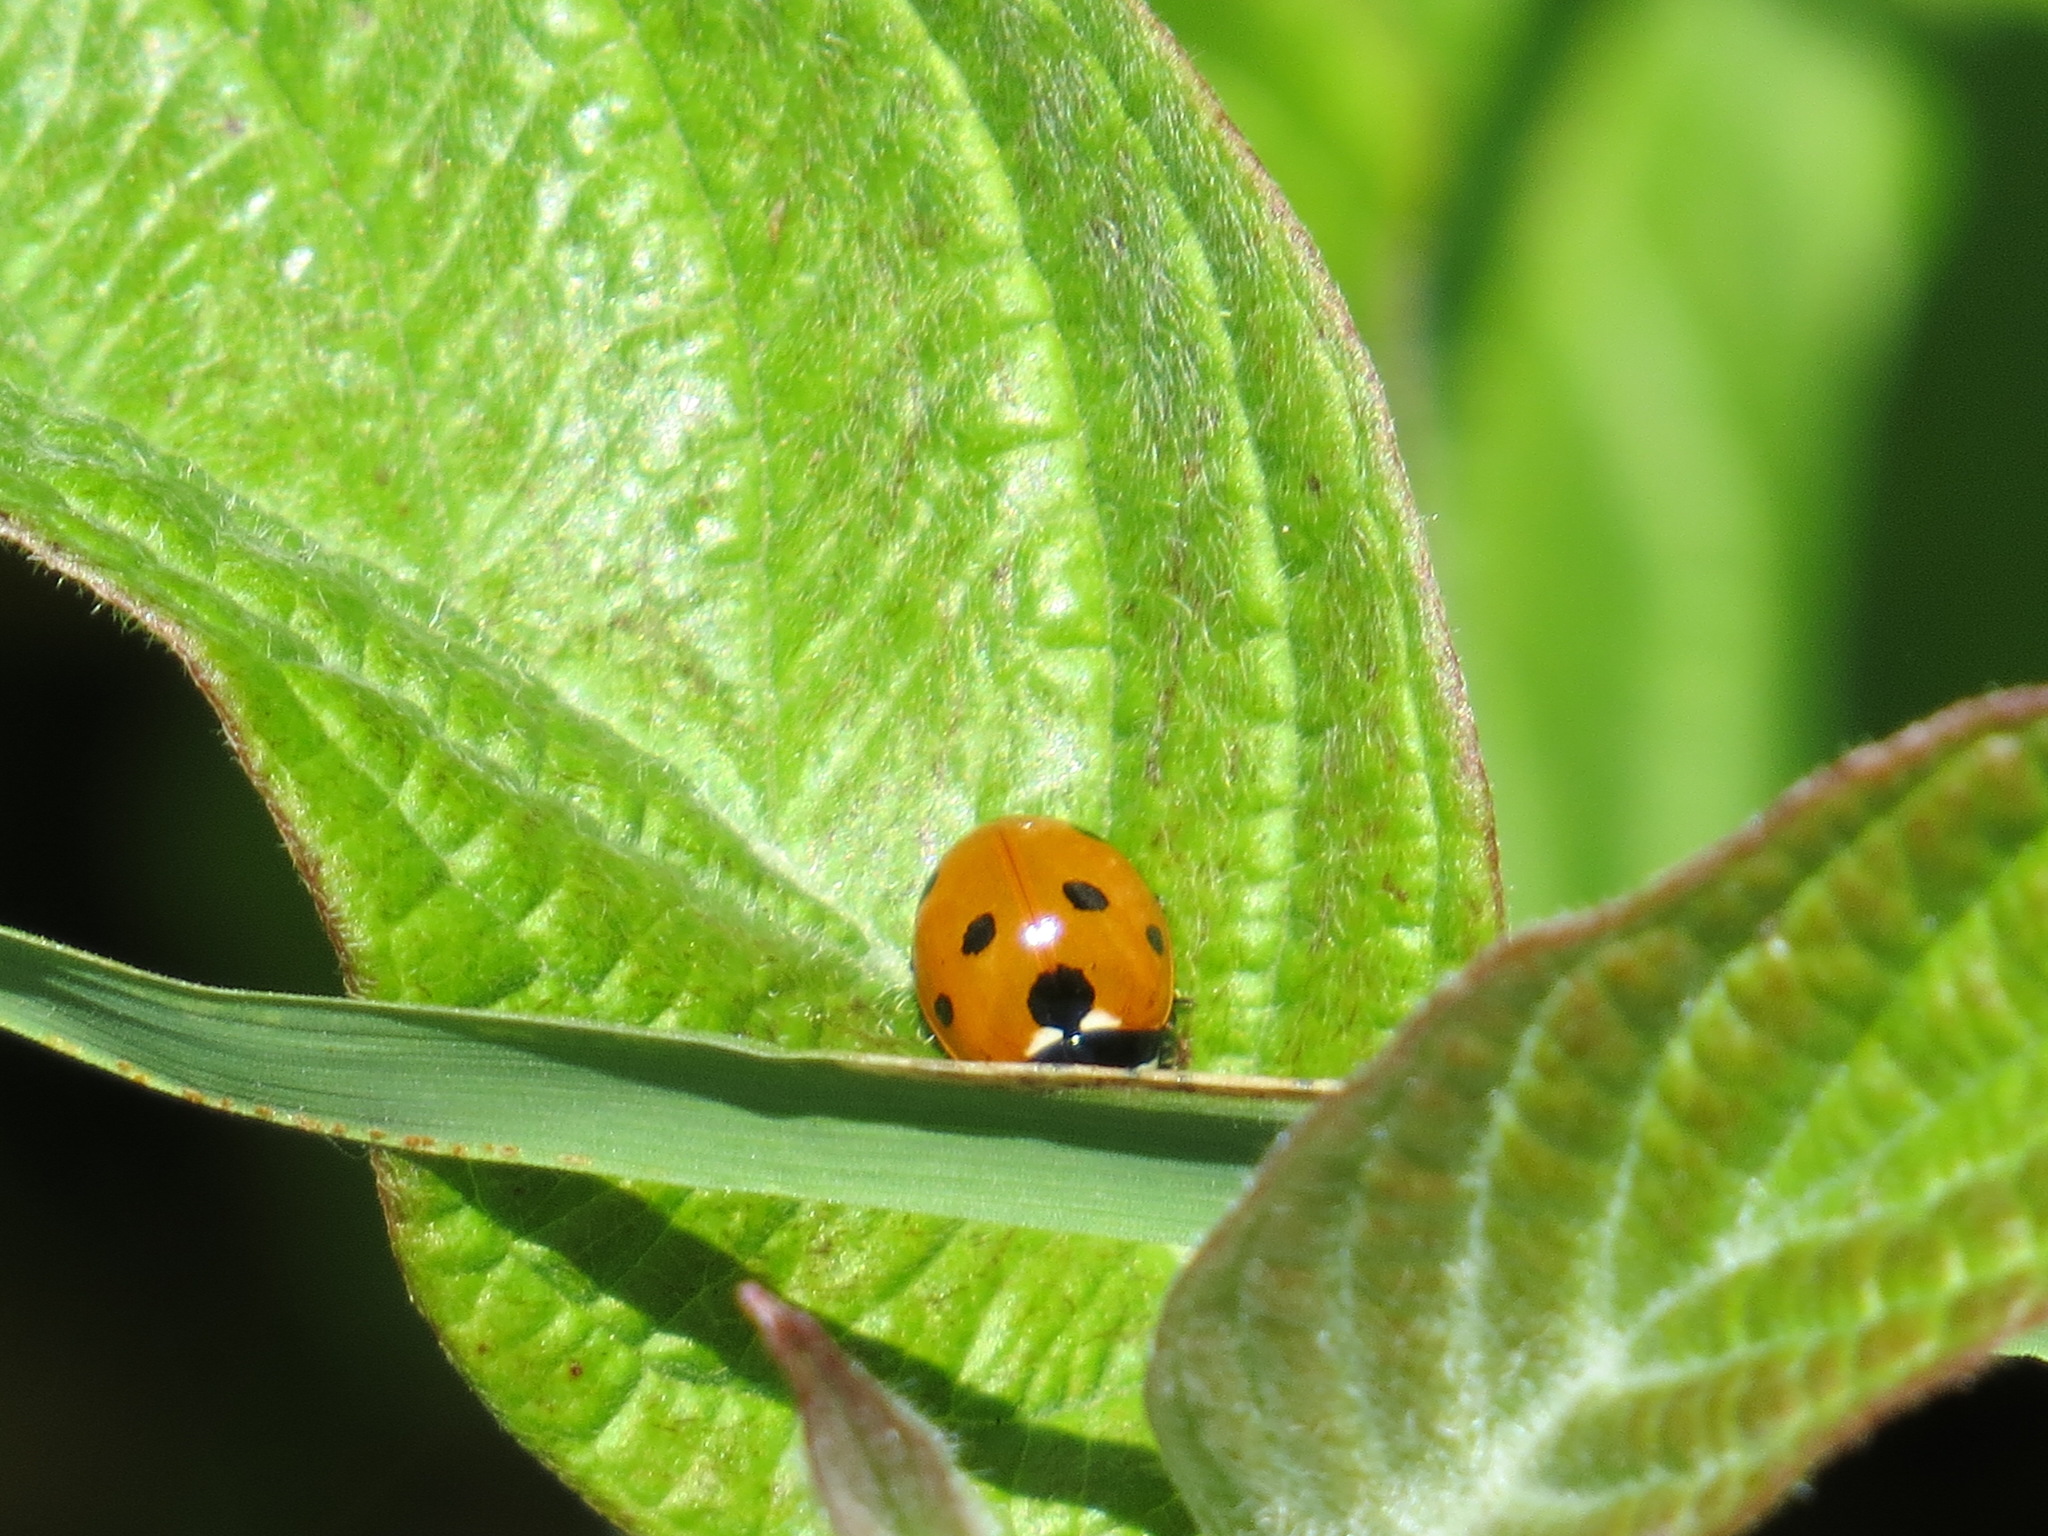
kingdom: Animalia
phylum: Arthropoda
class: Insecta
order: Coleoptera
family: Coccinellidae
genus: Coccinella
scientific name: Coccinella septempunctata
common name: Sevenspotted lady beetle
